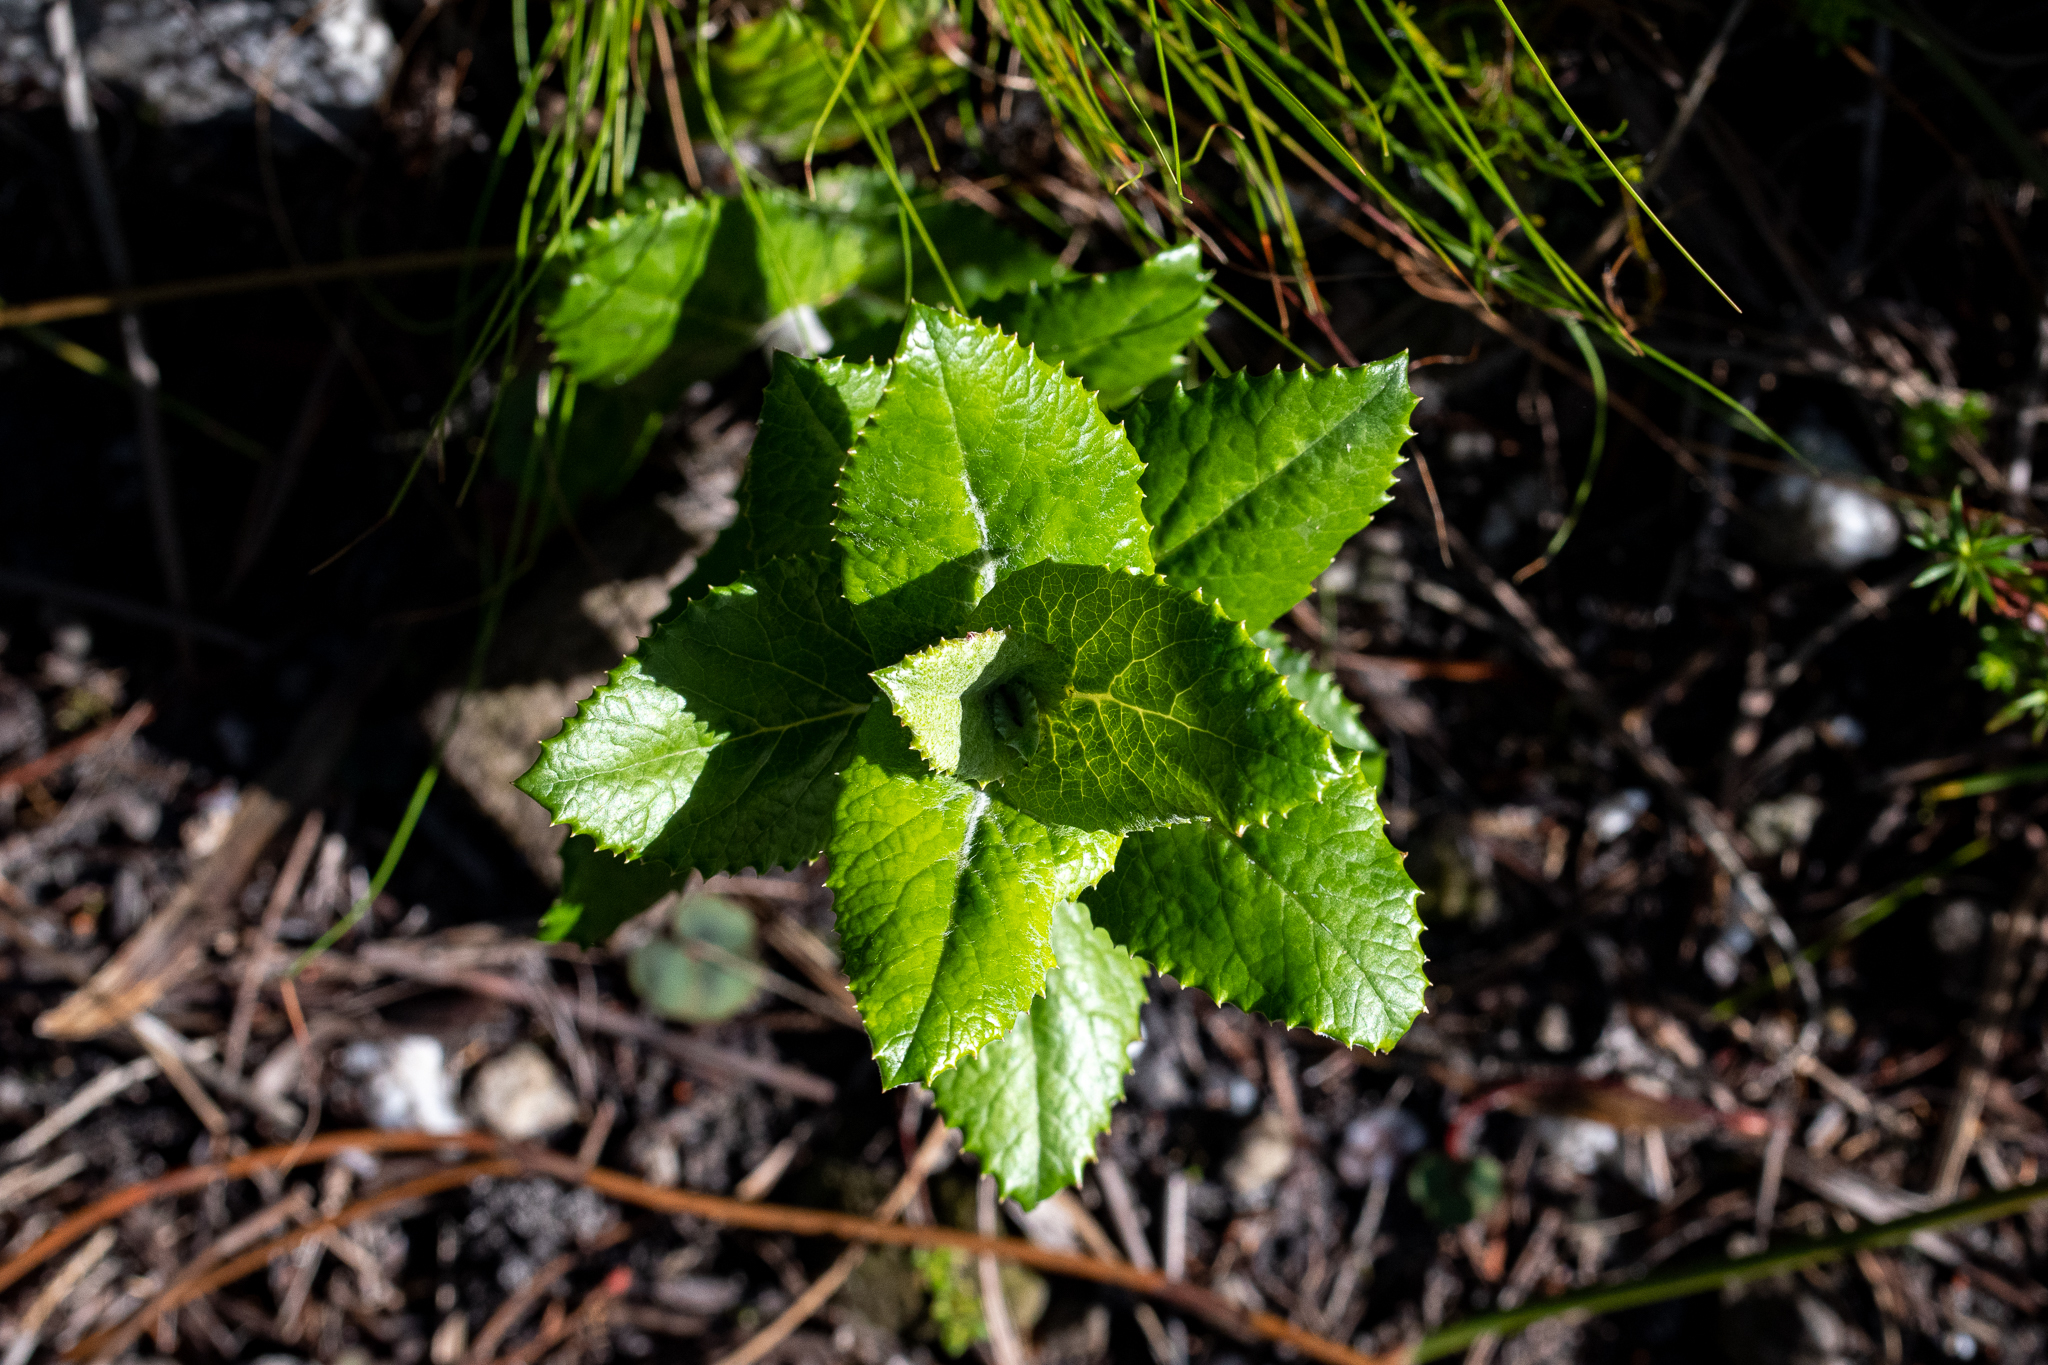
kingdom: Plantae
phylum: Tracheophyta
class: Magnoliopsida
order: Apiales
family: Apiaceae
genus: Hermas
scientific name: Hermas villosa
